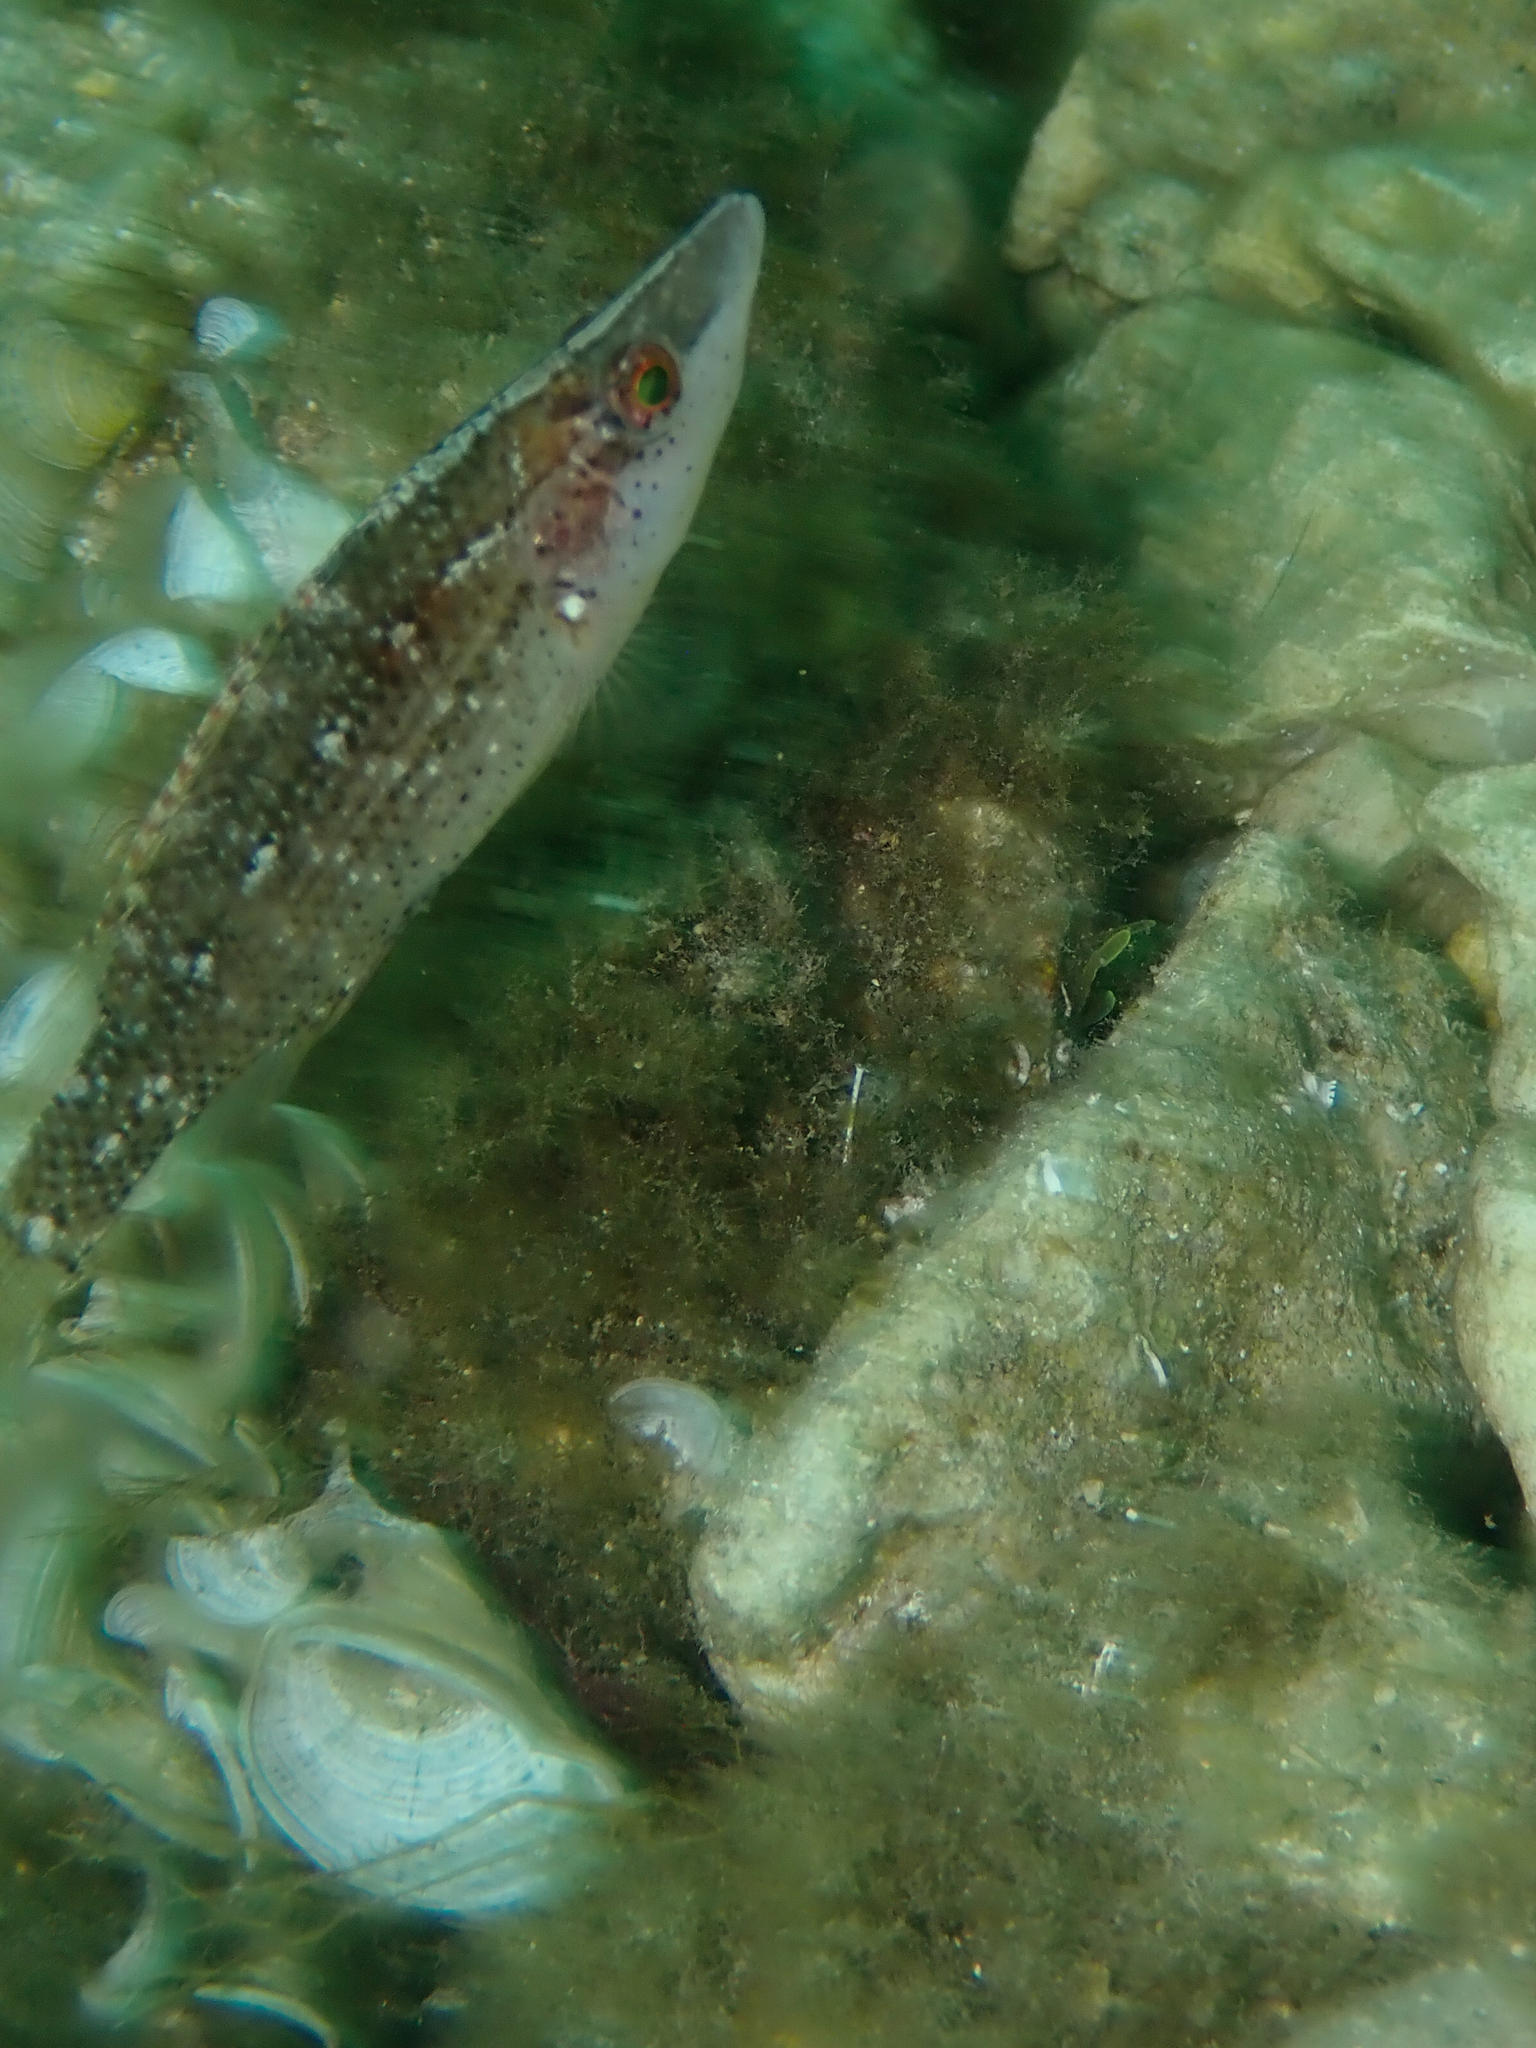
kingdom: Animalia
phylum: Chordata
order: Perciformes
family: Labridae
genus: Symphodus
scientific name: Symphodus rostratus
